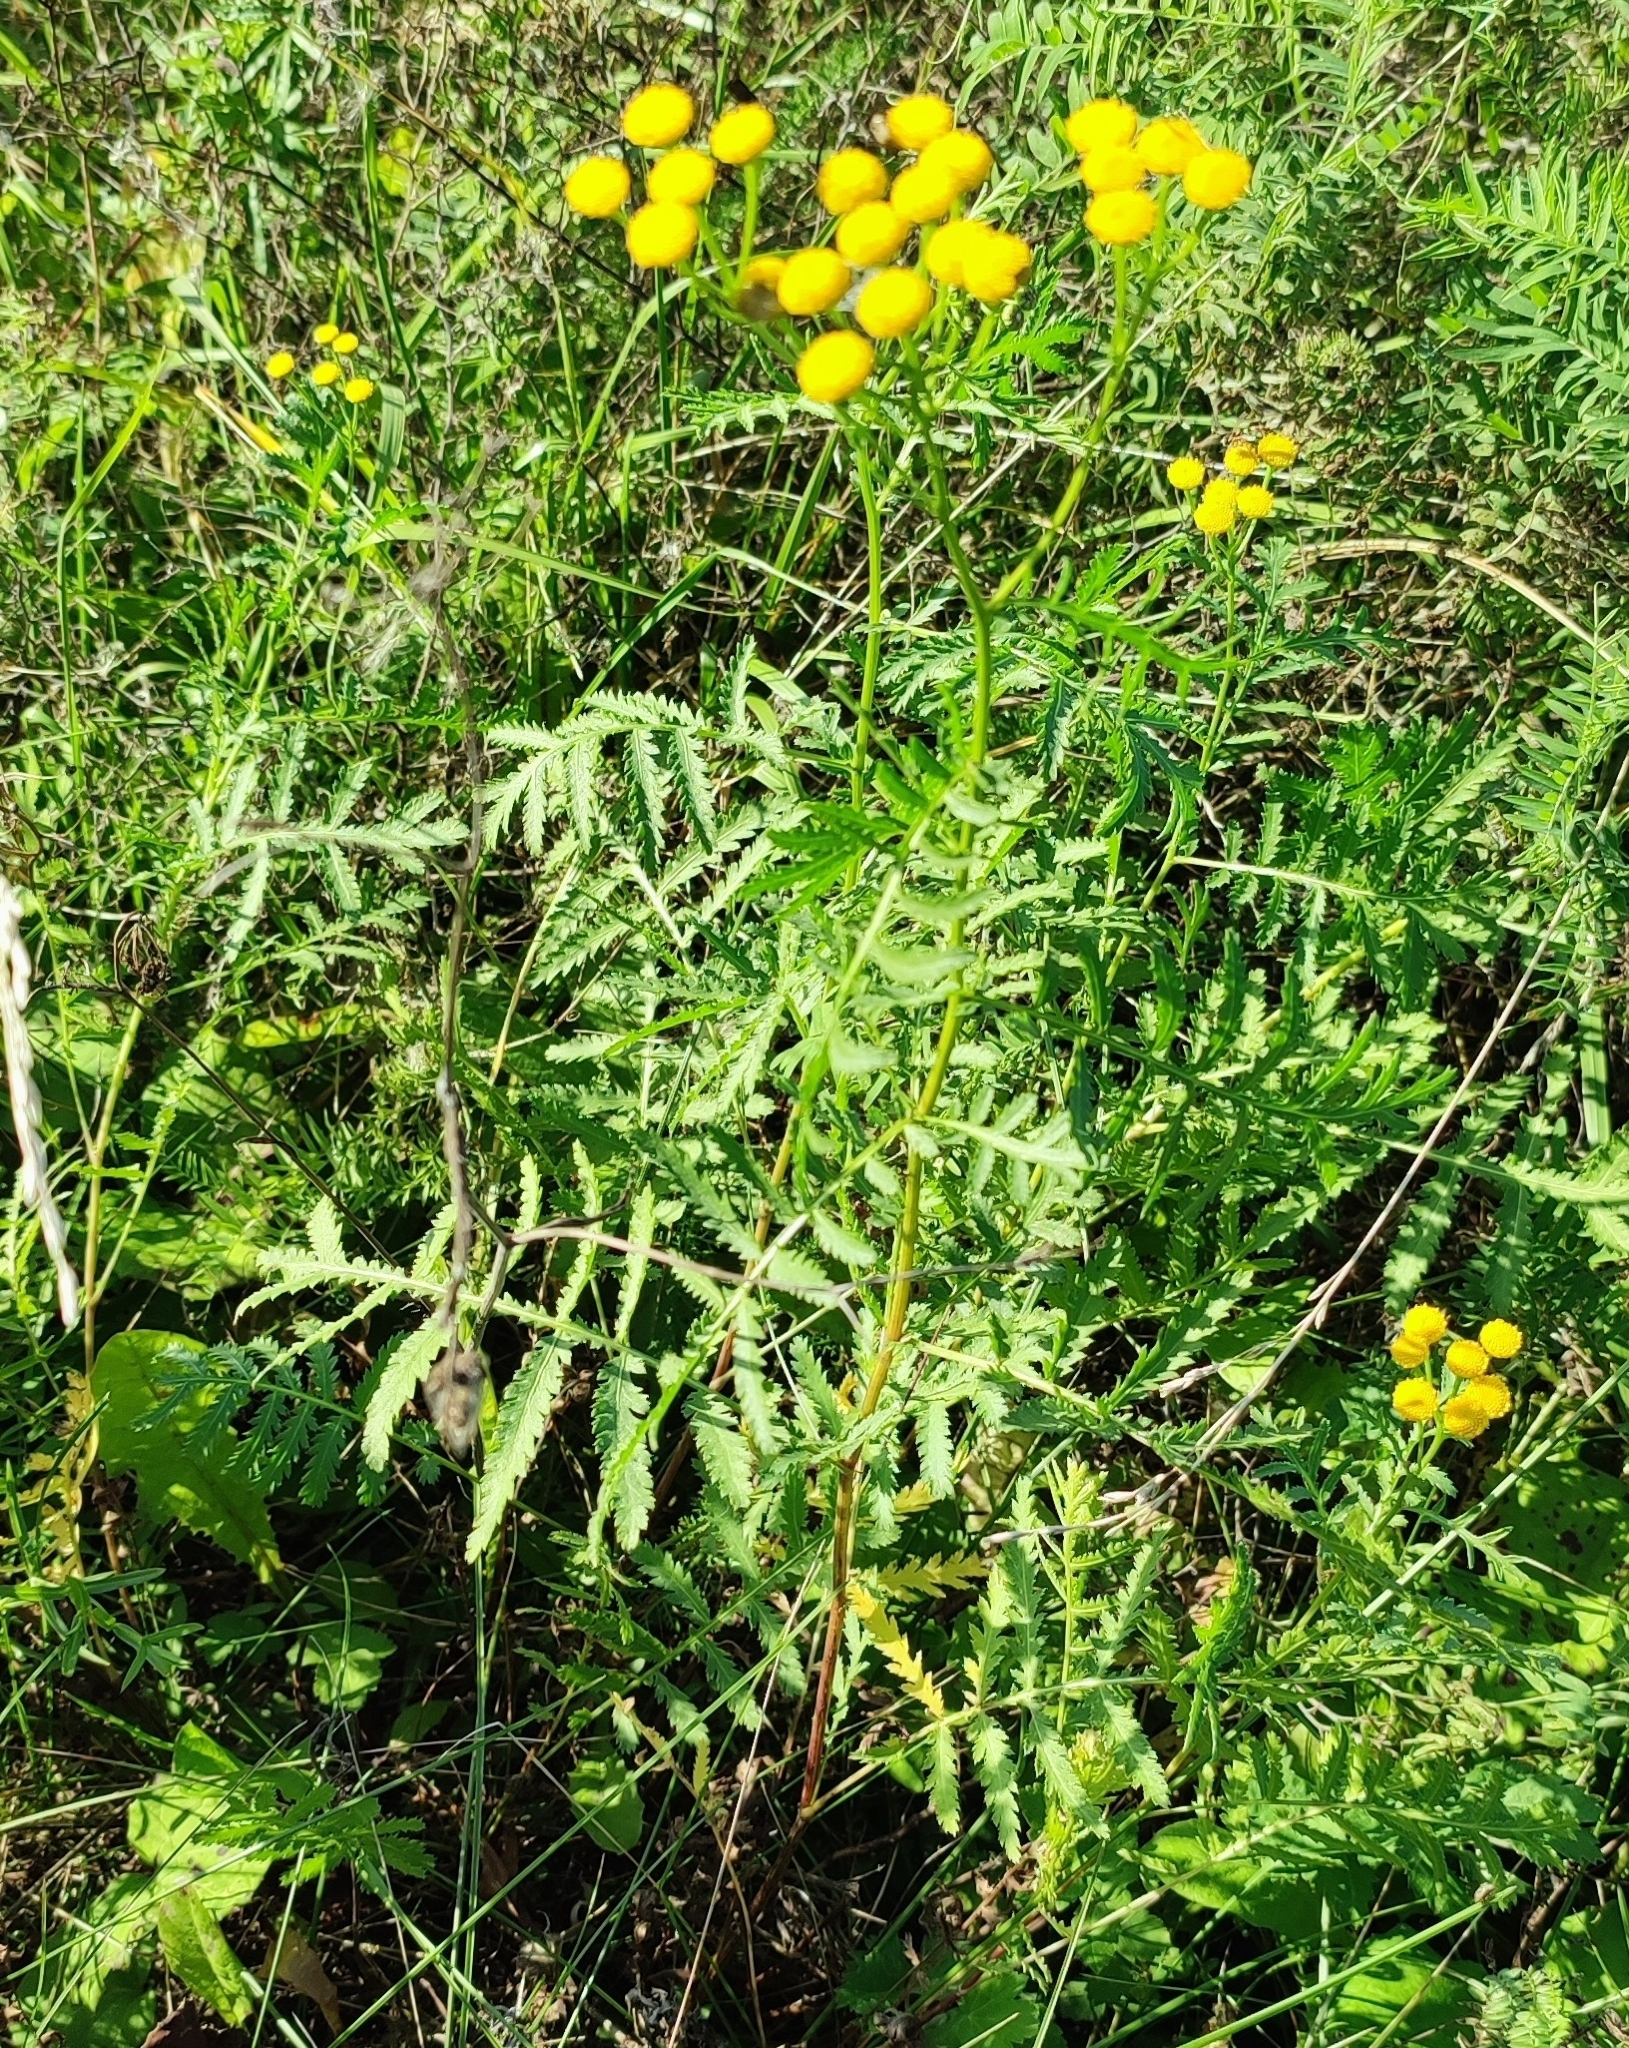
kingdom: Plantae
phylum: Tracheophyta
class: Magnoliopsida
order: Asterales
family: Asteraceae
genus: Tanacetum
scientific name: Tanacetum vulgare
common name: Common tansy
